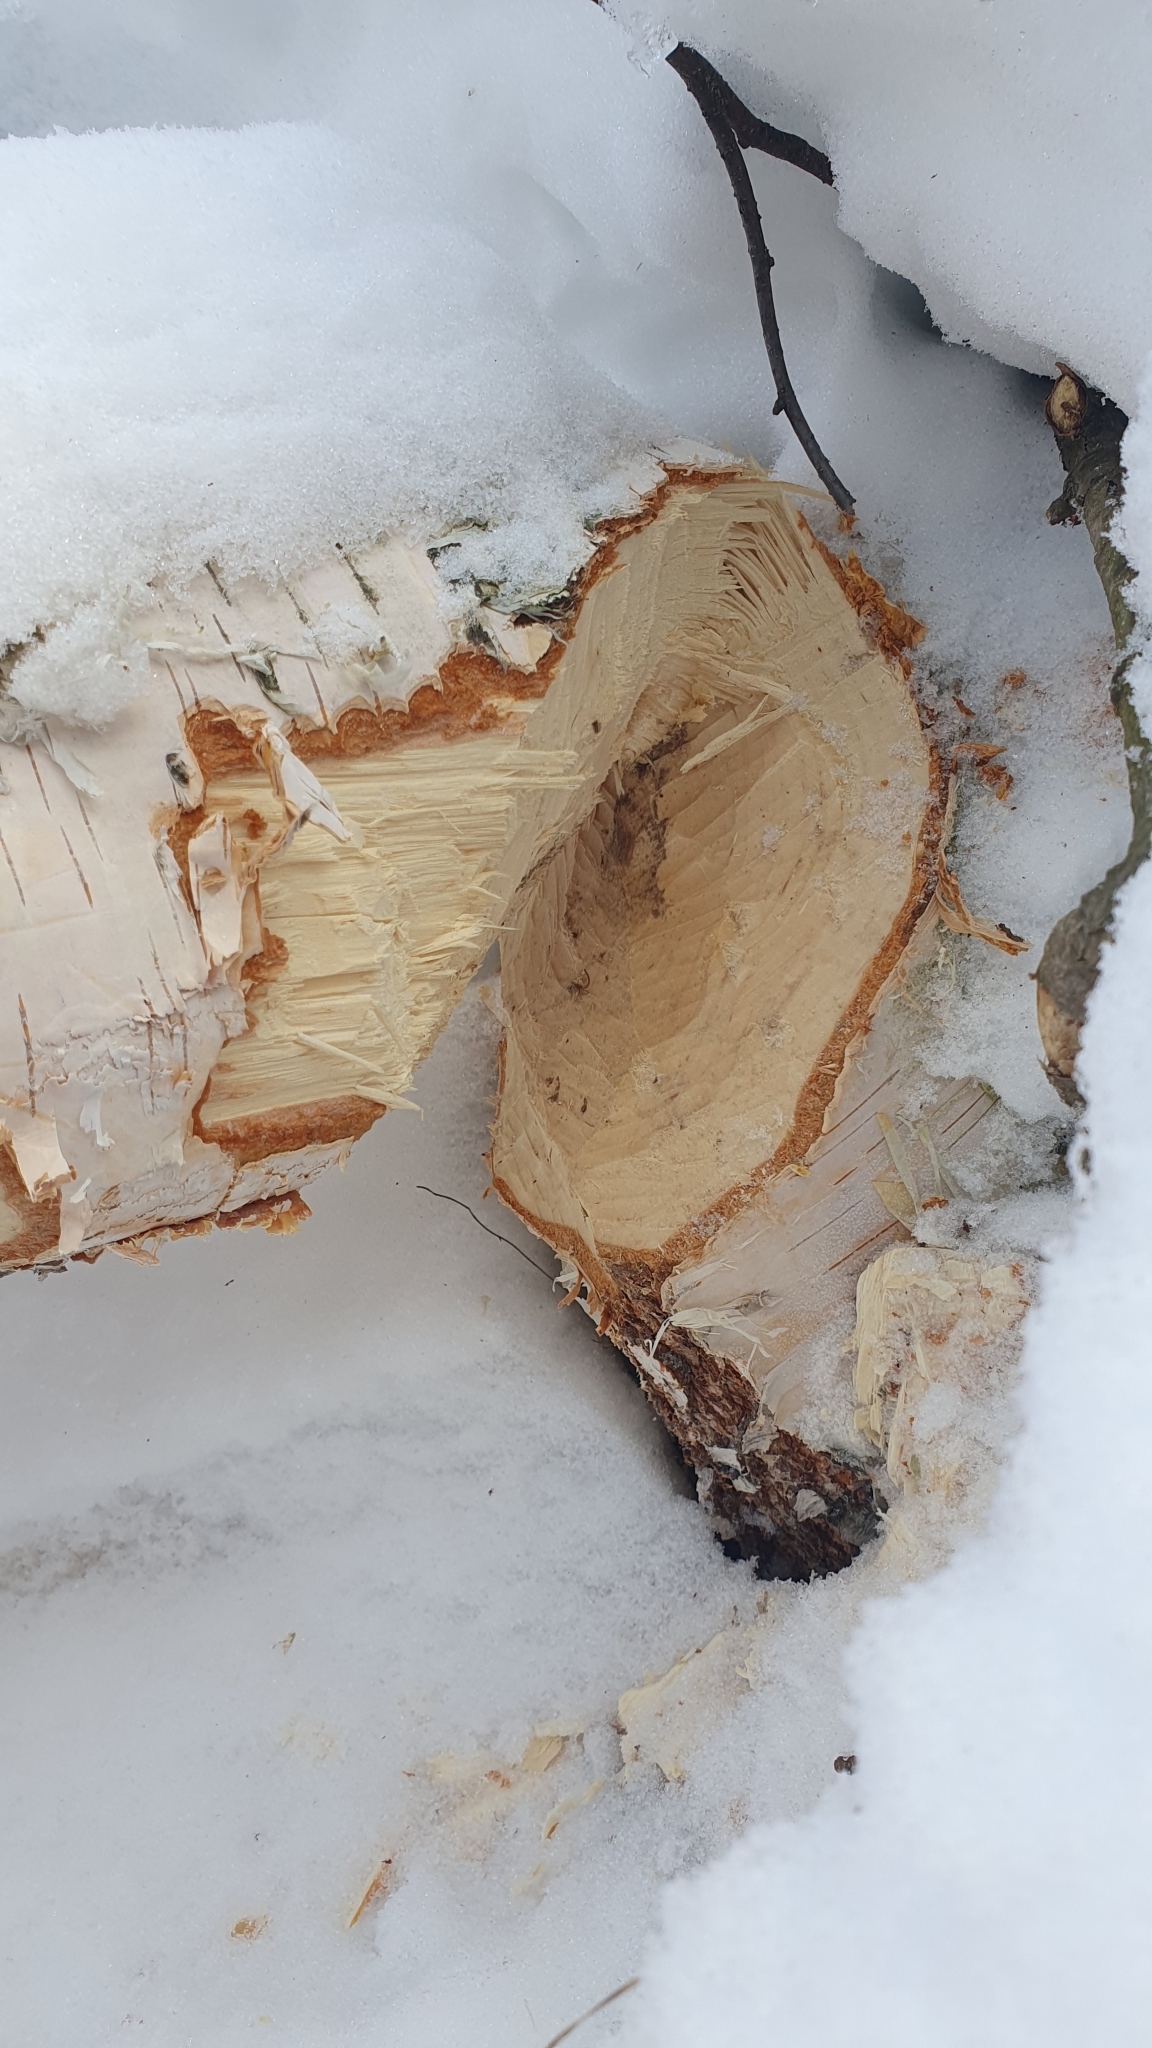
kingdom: Animalia
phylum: Chordata
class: Mammalia
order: Rodentia
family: Castoridae
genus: Castor
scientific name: Castor fiber
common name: Eurasian beaver
